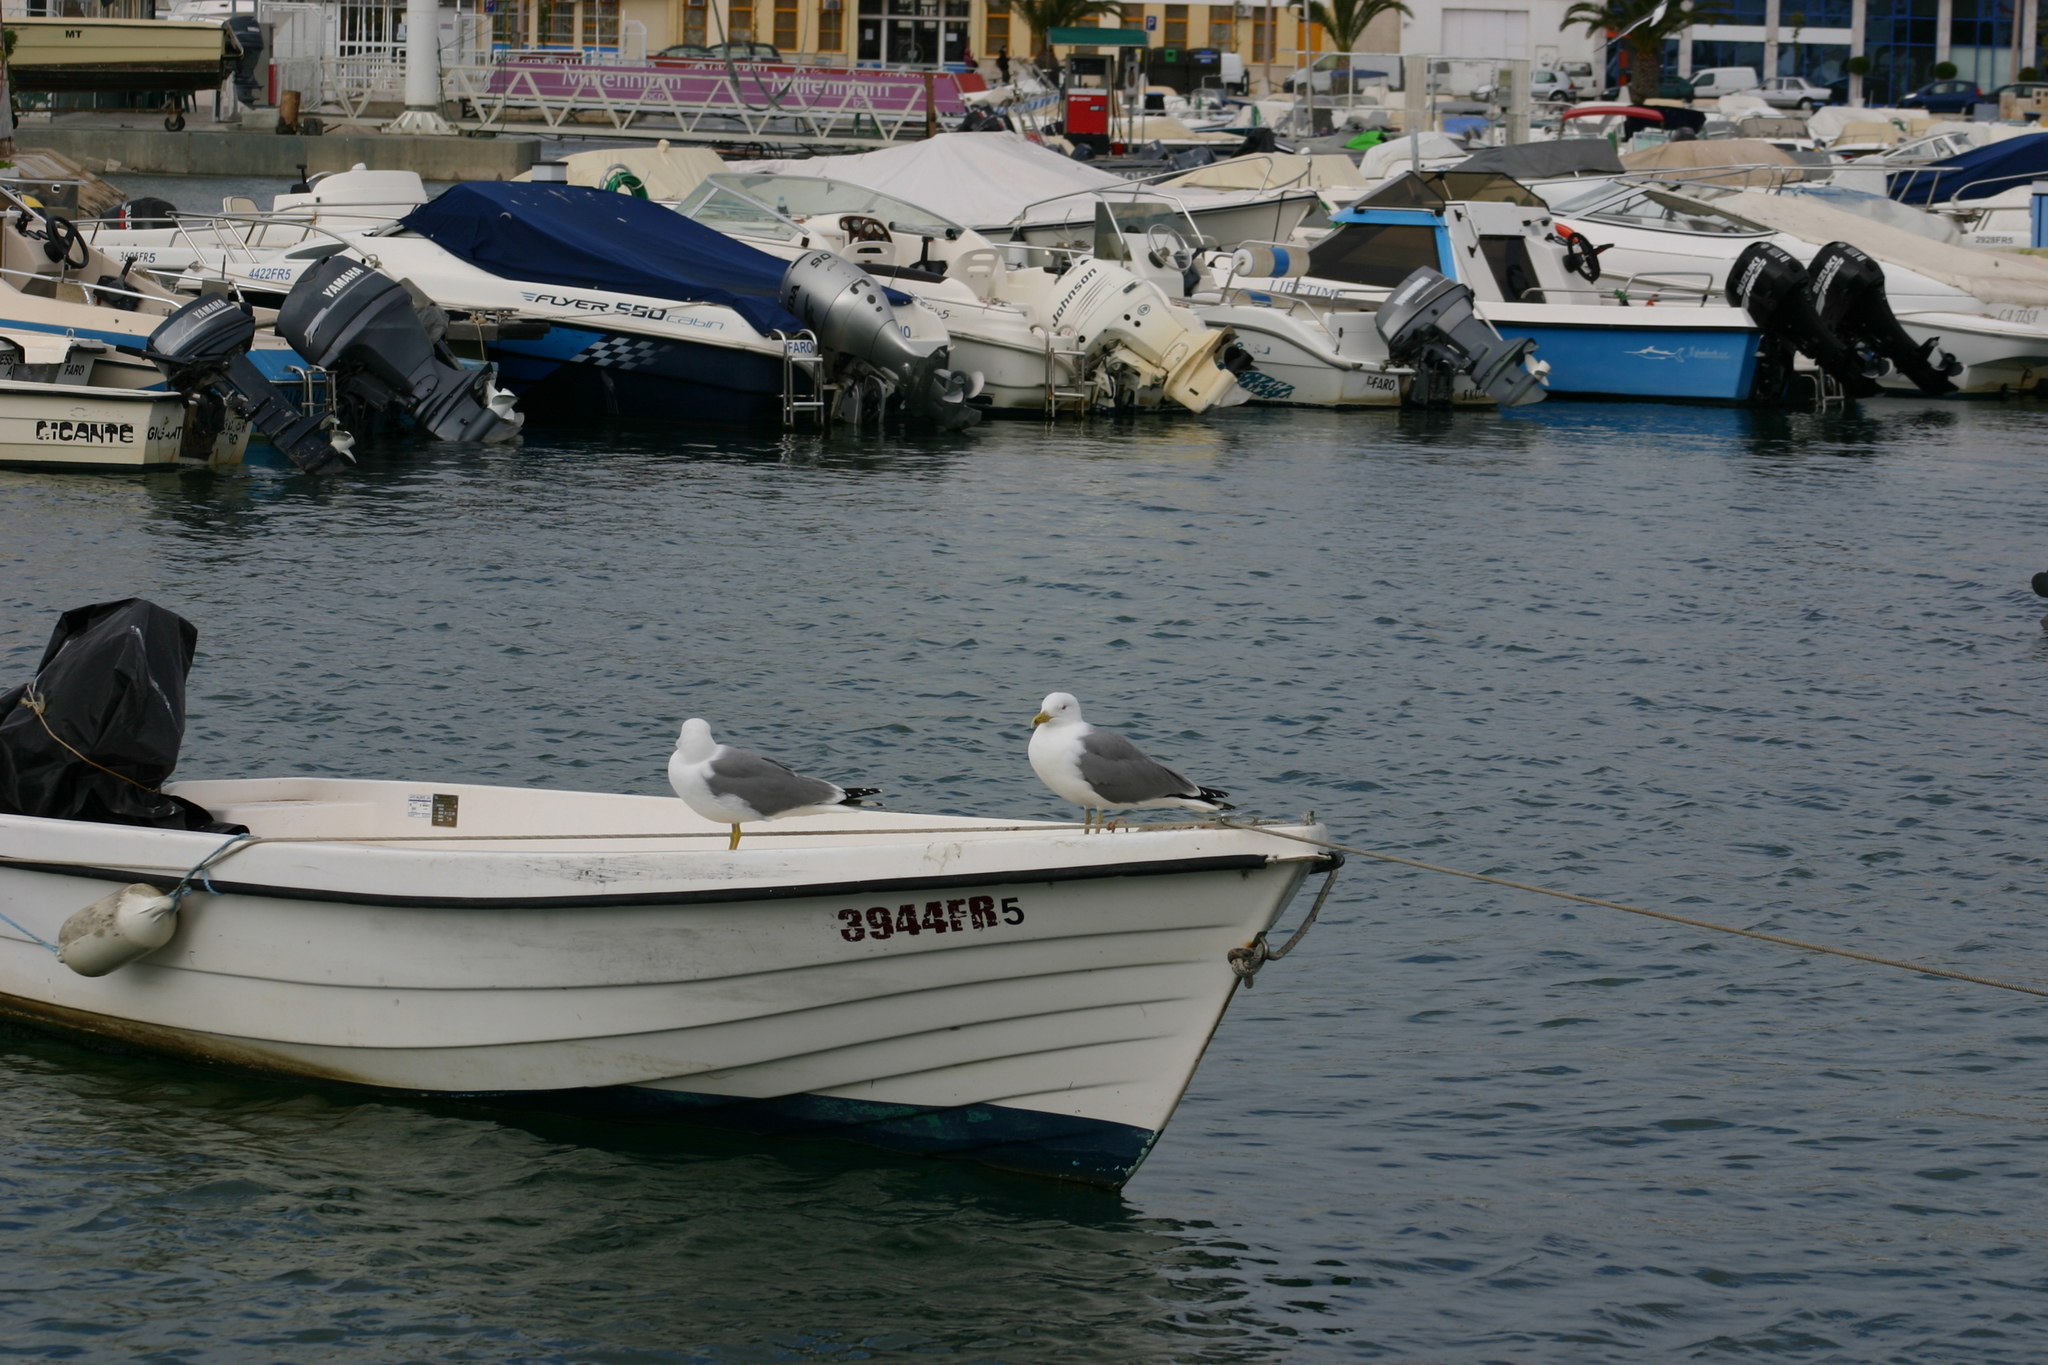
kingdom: Animalia
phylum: Chordata
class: Aves
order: Charadriiformes
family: Laridae
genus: Larus
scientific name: Larus michahellis
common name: Yellow-legged gull
